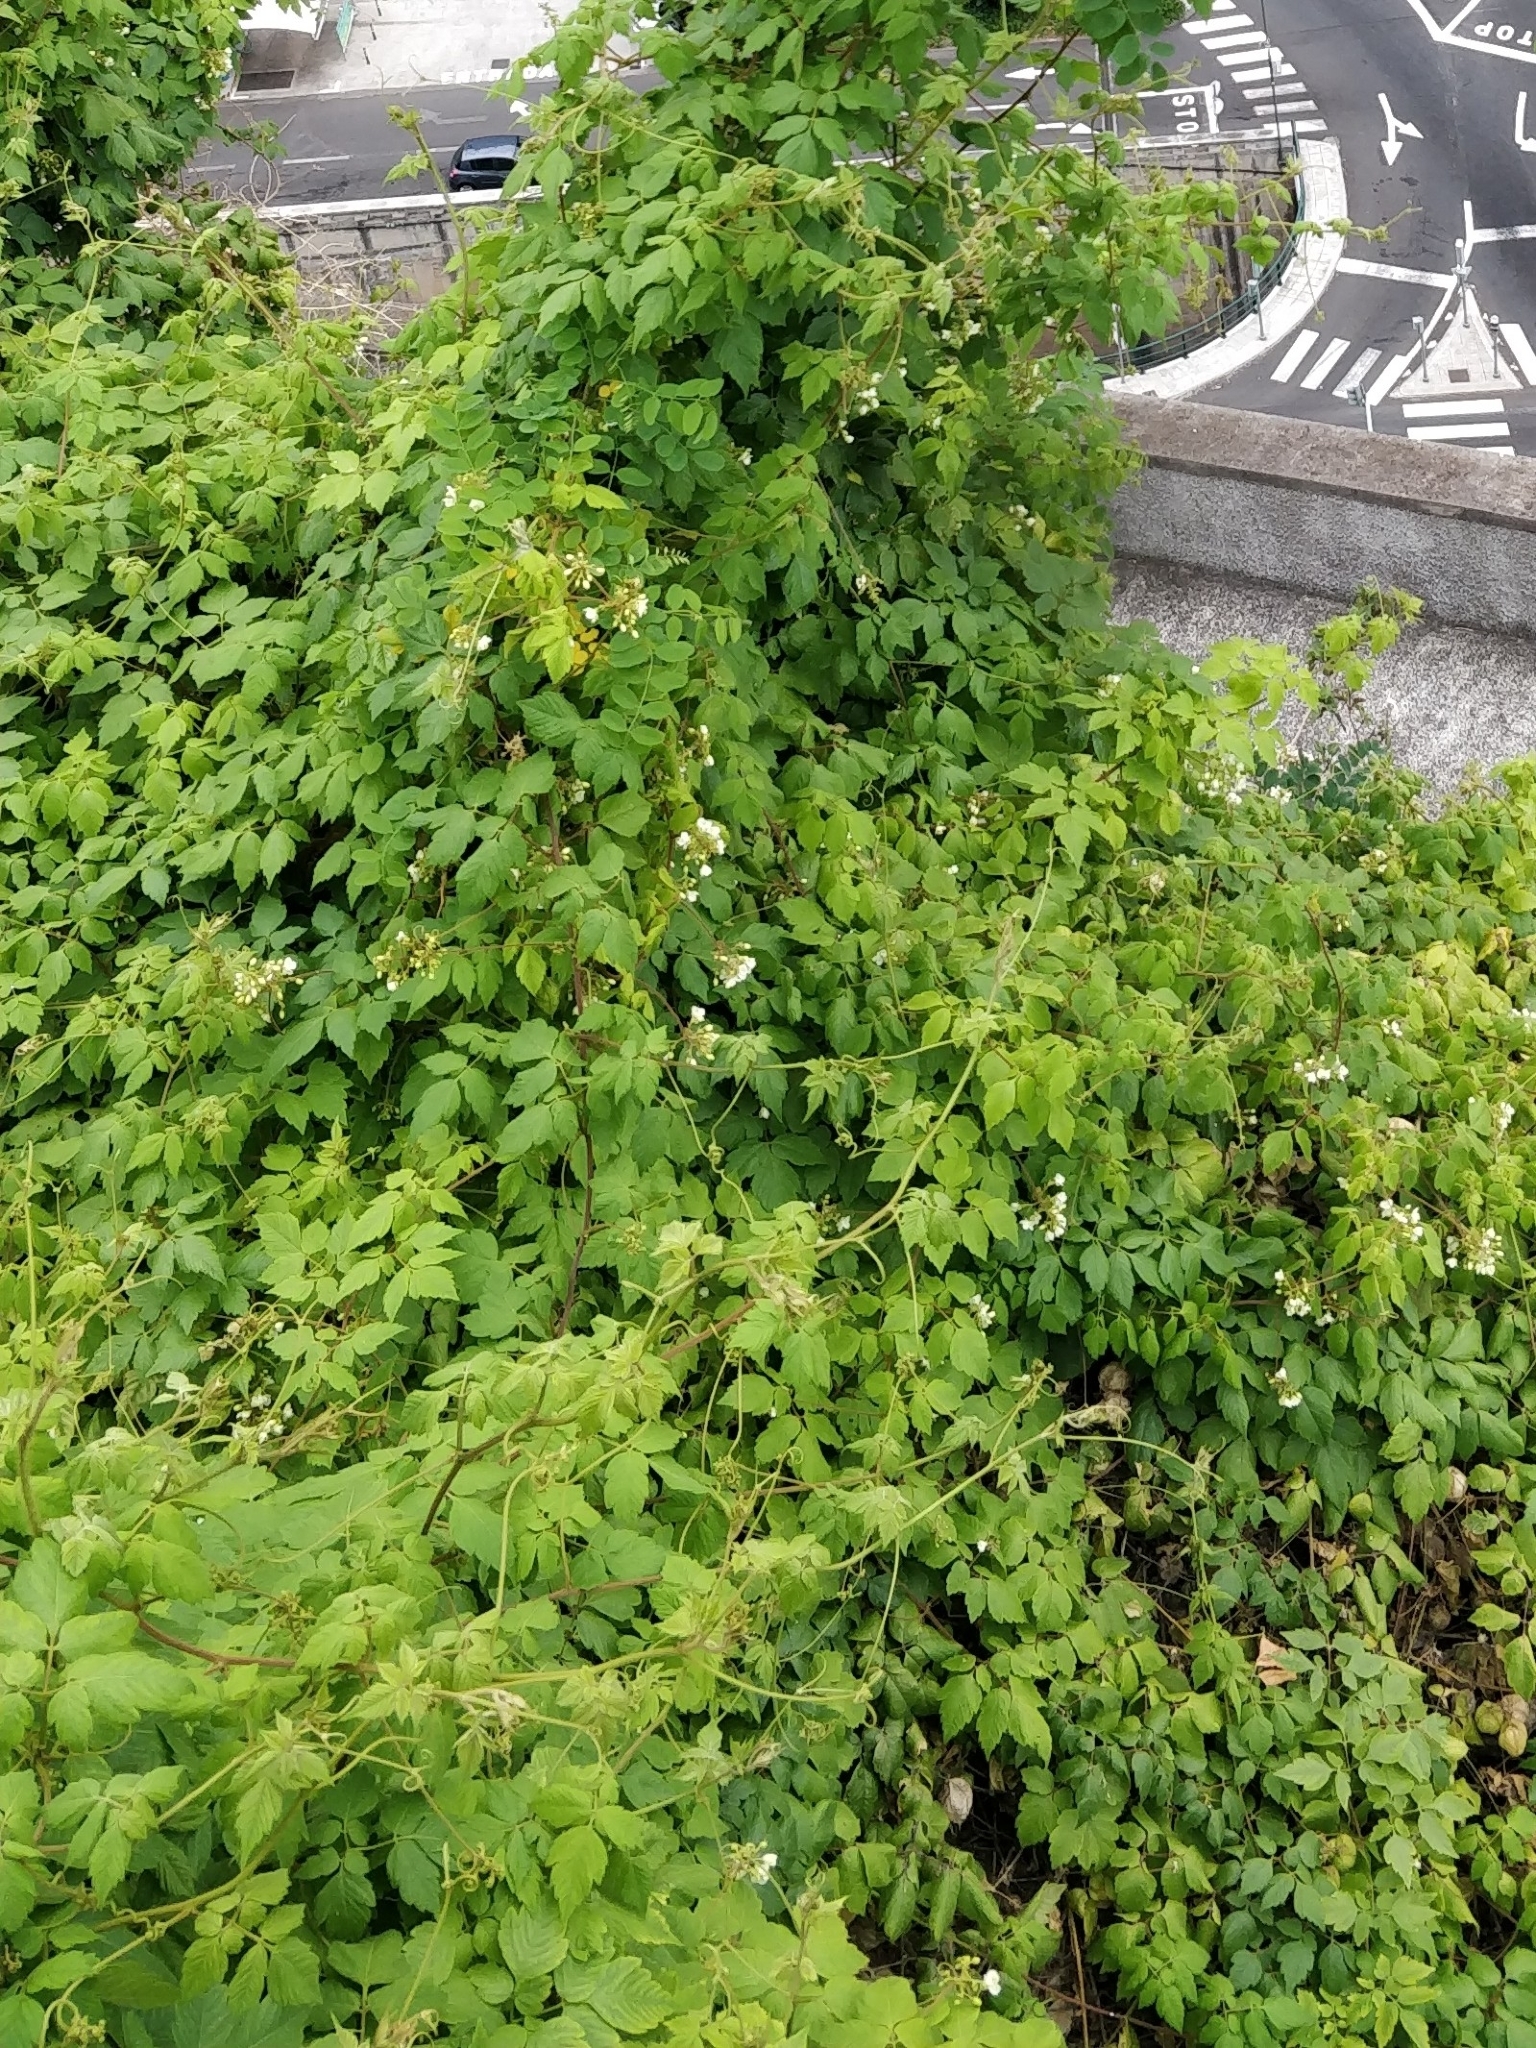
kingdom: Plantae
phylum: Tracheophyta
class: Magnoliopsida
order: Sapindales
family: Sapindaceae
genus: Cardiospermum
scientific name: Cardiospermum grandiflorum
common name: Balloon vine
